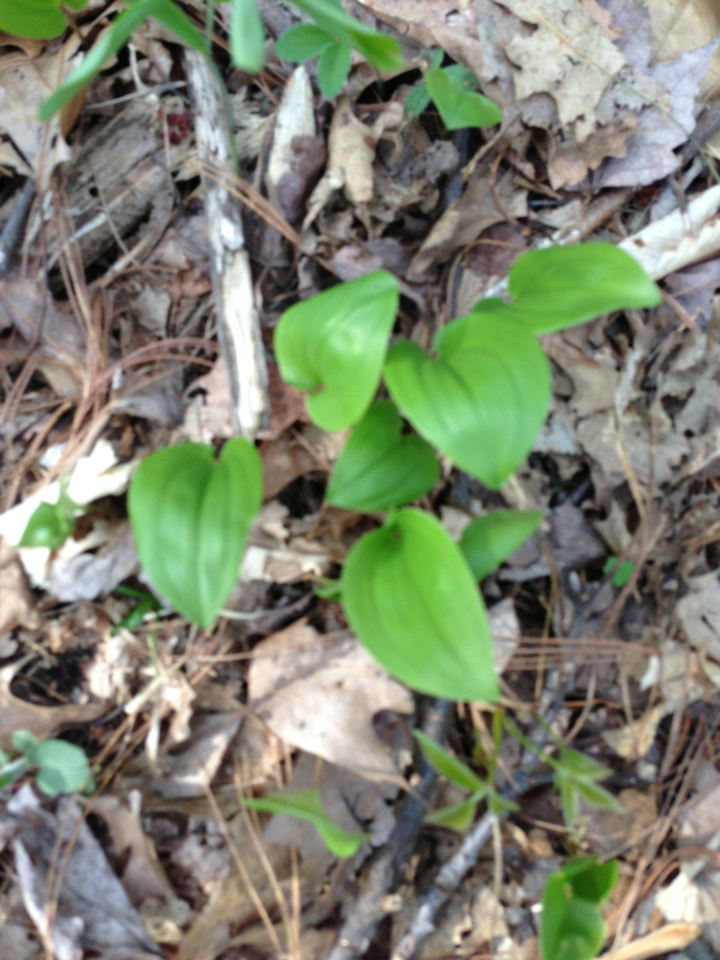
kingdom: Plantae
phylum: Tracheophyta
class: Liliopsida
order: Asparagales
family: Asparagaceae
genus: Maianthemum
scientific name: Maianthemum canadense
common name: False lily-of-the-valley
